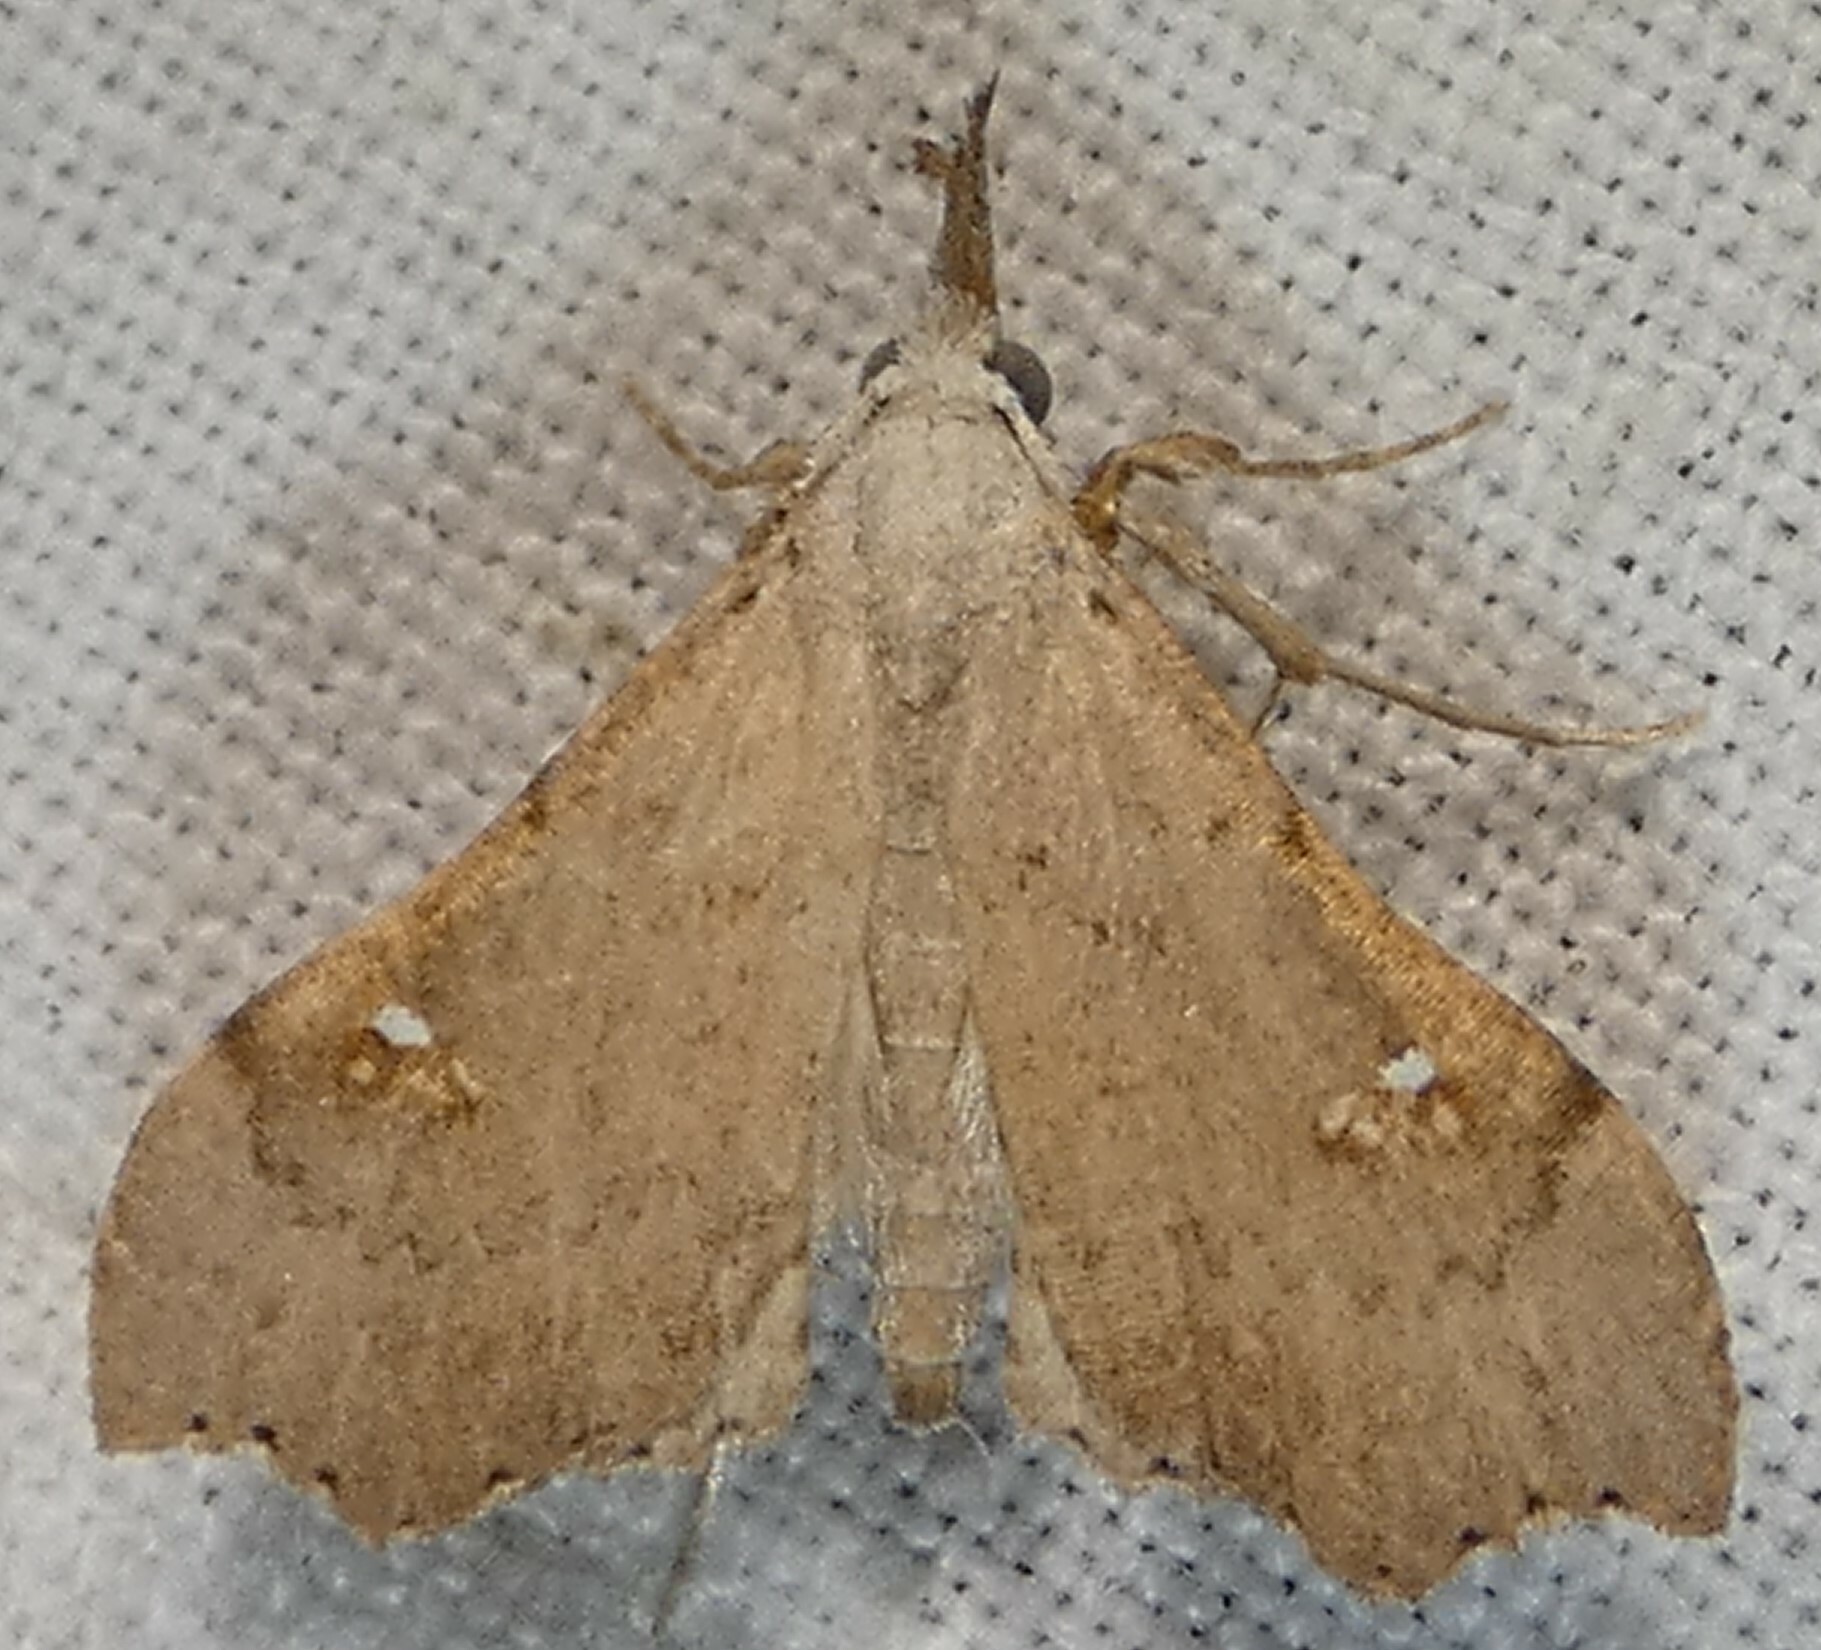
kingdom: Animalia
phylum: Arthropoda
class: Insecta
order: Lepidoptera
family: Erebidae
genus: Redectis
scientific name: Redectis vitrea
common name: White-spotted redectis
